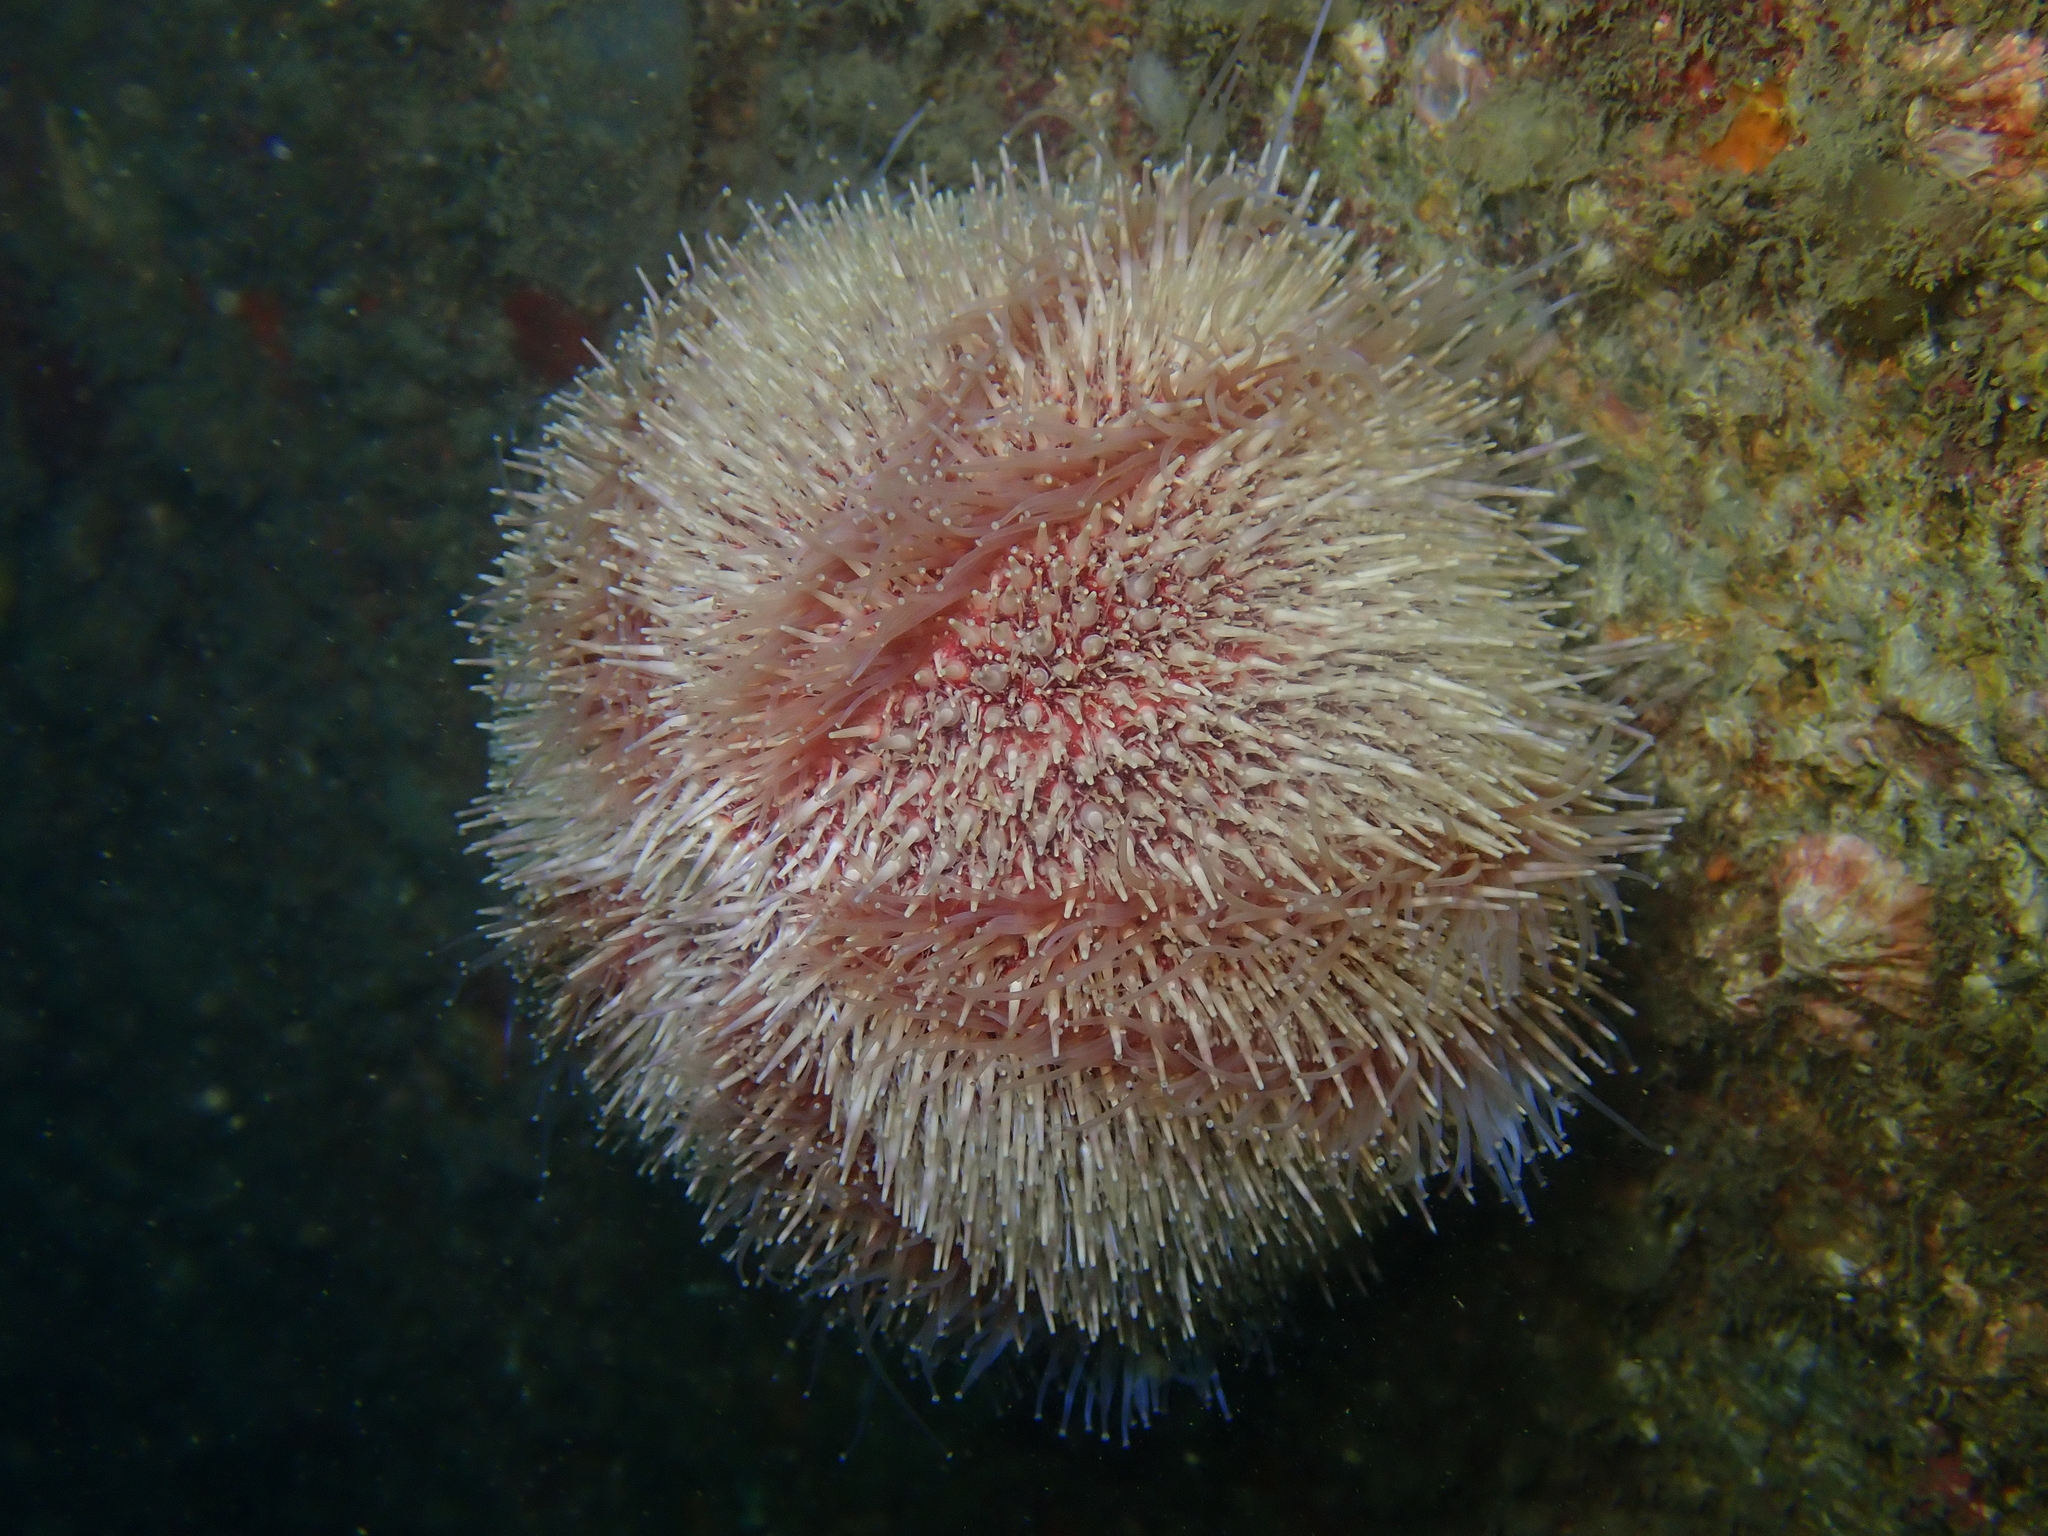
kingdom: Animalia
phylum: Echinodermata
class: Echinoidea
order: Camarodonta
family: Echinidae
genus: Echinus
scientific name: Echinus esculentus
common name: Edible sea urchin
